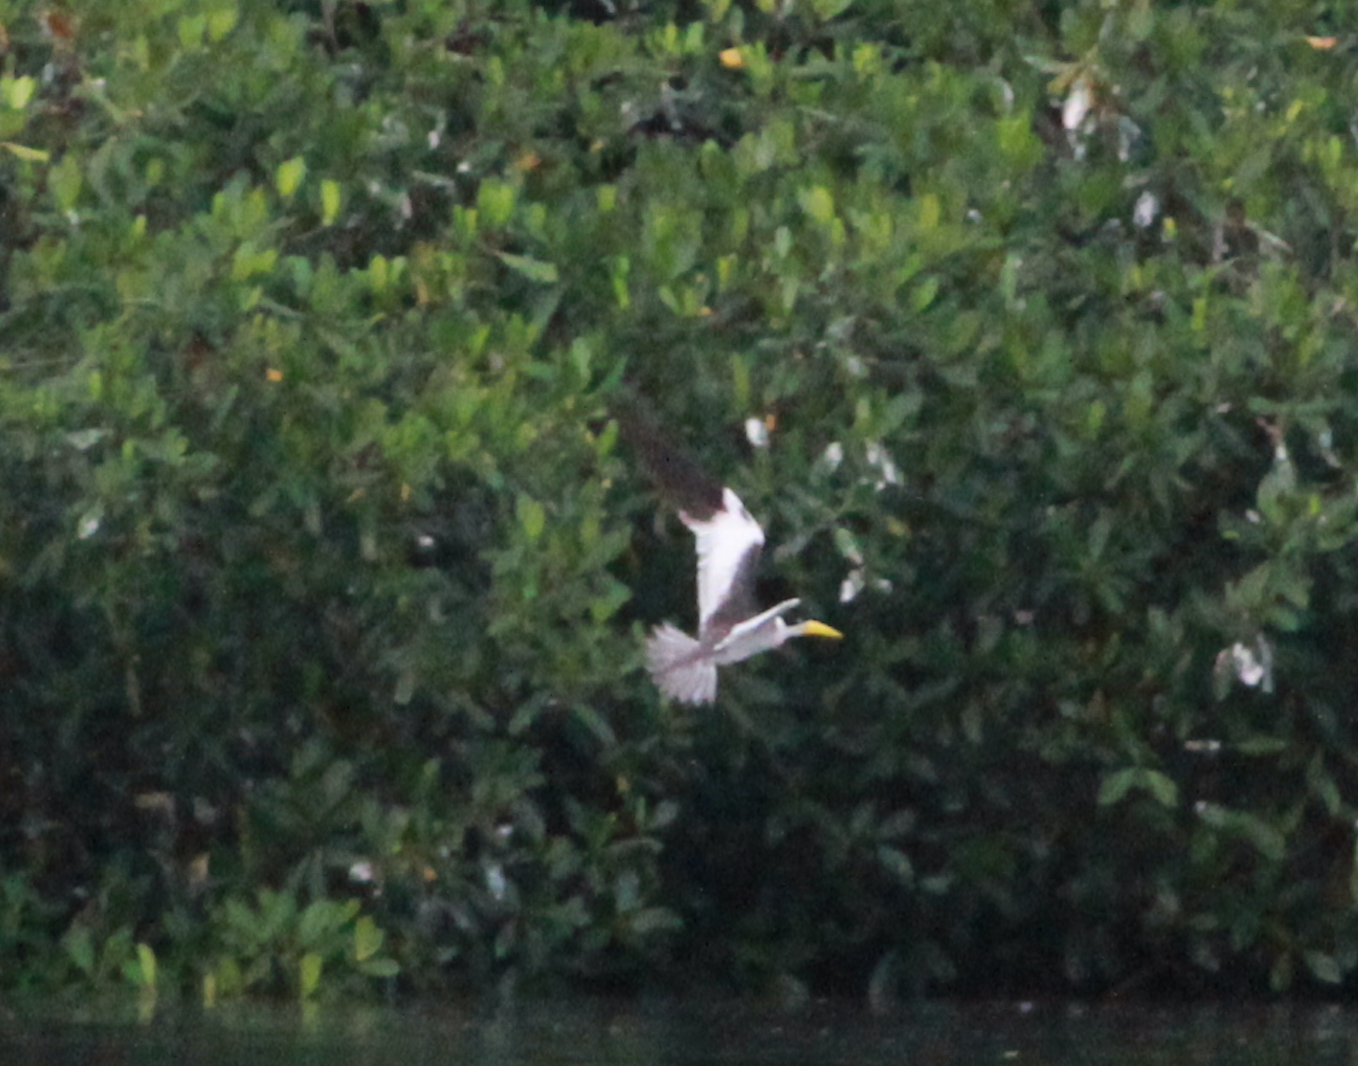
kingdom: Animalia
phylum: Chordata
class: Aves
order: Charadriiformes
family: Laridae
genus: Phaetusa
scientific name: Phaetusa simplex
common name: Large-billed tern
